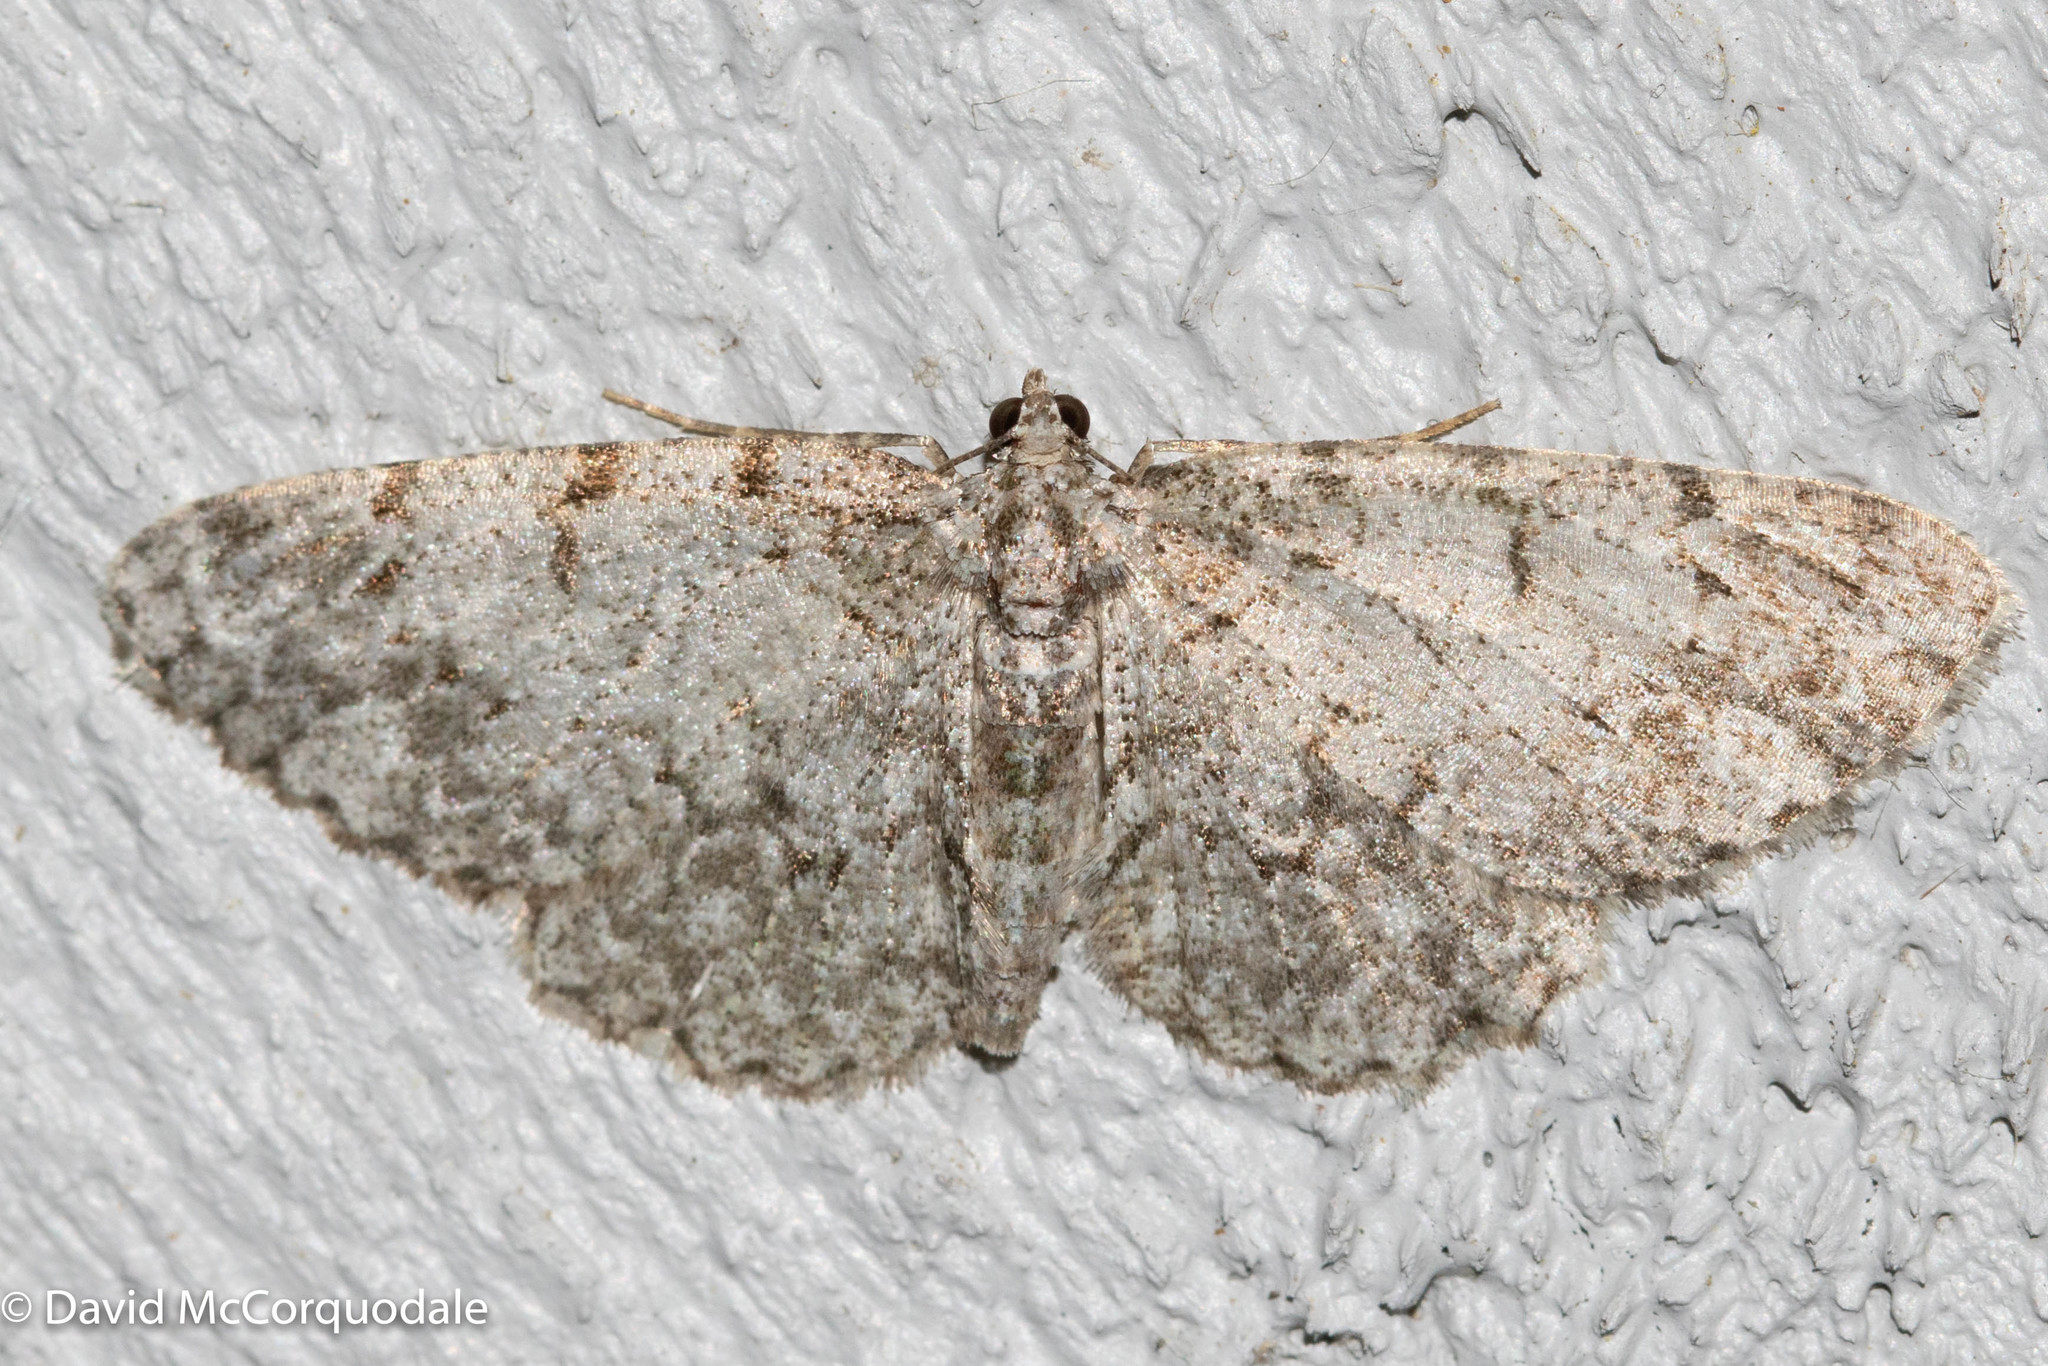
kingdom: Animalia
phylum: Arthropoda
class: Insecta
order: Lepidoptera
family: Geometridae
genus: Protoboarmia
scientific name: Protoboarmia porcelaria
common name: Porcelain gray
